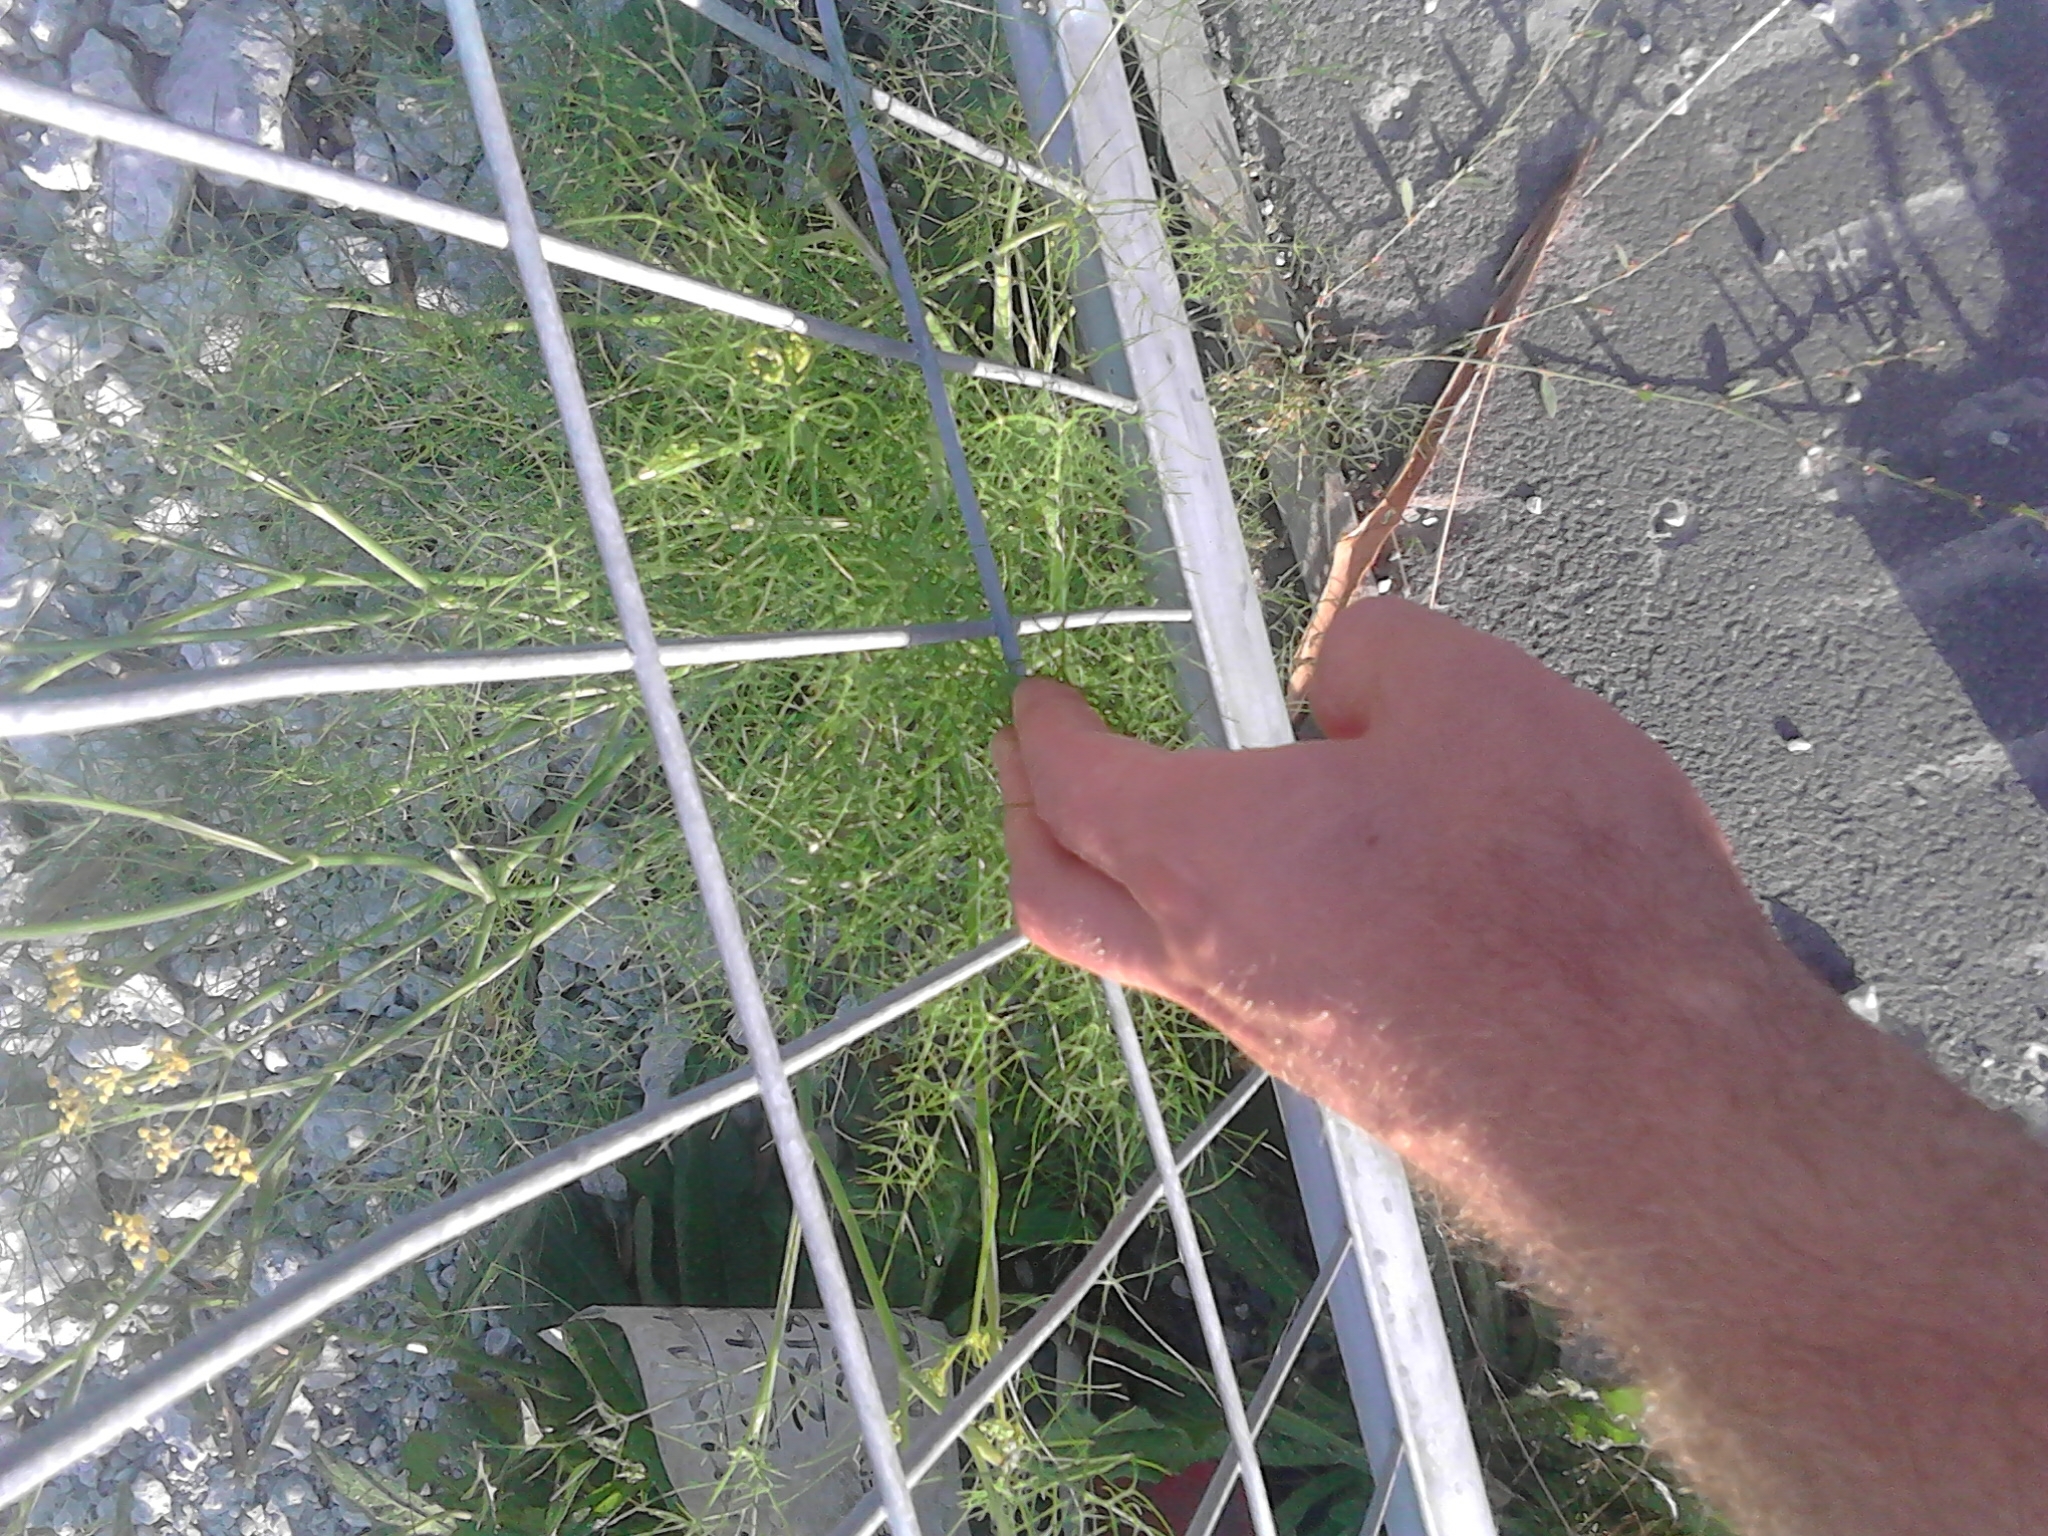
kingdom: Plantae
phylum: Tracheophyta
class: Magnoliopsida
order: Apiales
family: Apiaceae
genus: Foeniculum
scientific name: Foeniculum vulgare
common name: Fennel
